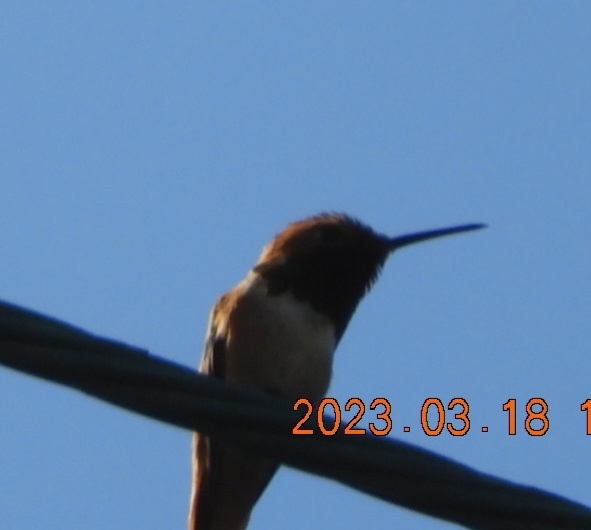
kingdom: Animalia
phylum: Chordata
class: Aves
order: Apodiformes
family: Trochilidae
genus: Selasphorus
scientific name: Selasphorus
